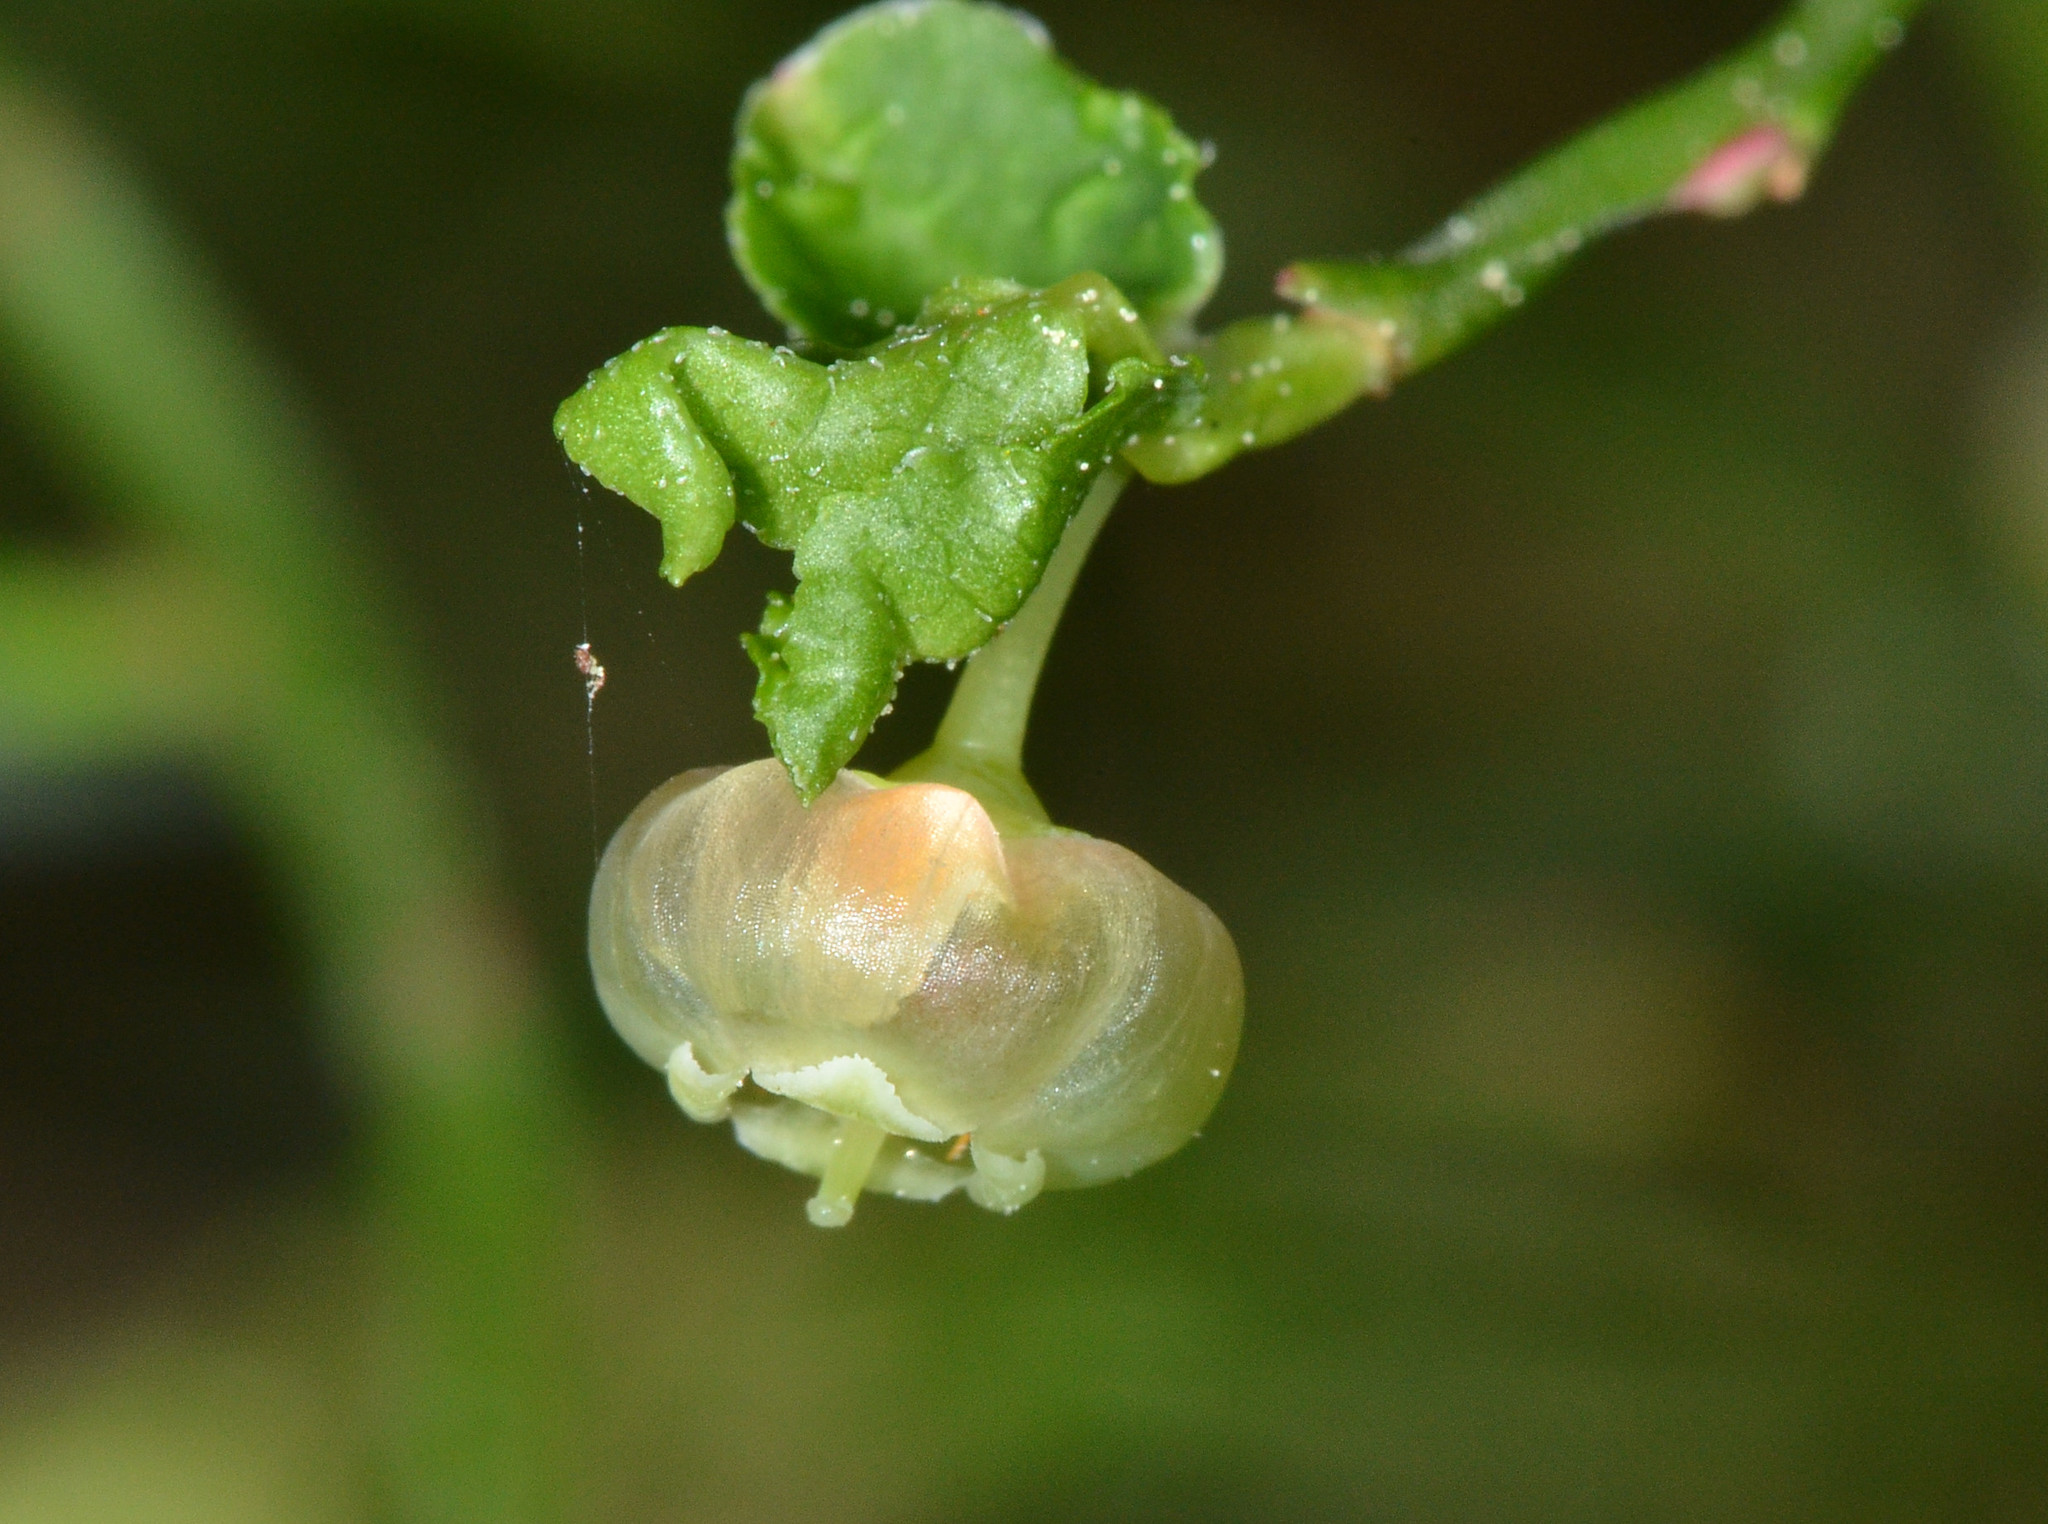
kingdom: Plantae
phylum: Tracheophyta
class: Magnoliopsida
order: Ericales
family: Ericaceae
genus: Vaccinium
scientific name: Vaccinium parvifolium
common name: Red-huckleberry
